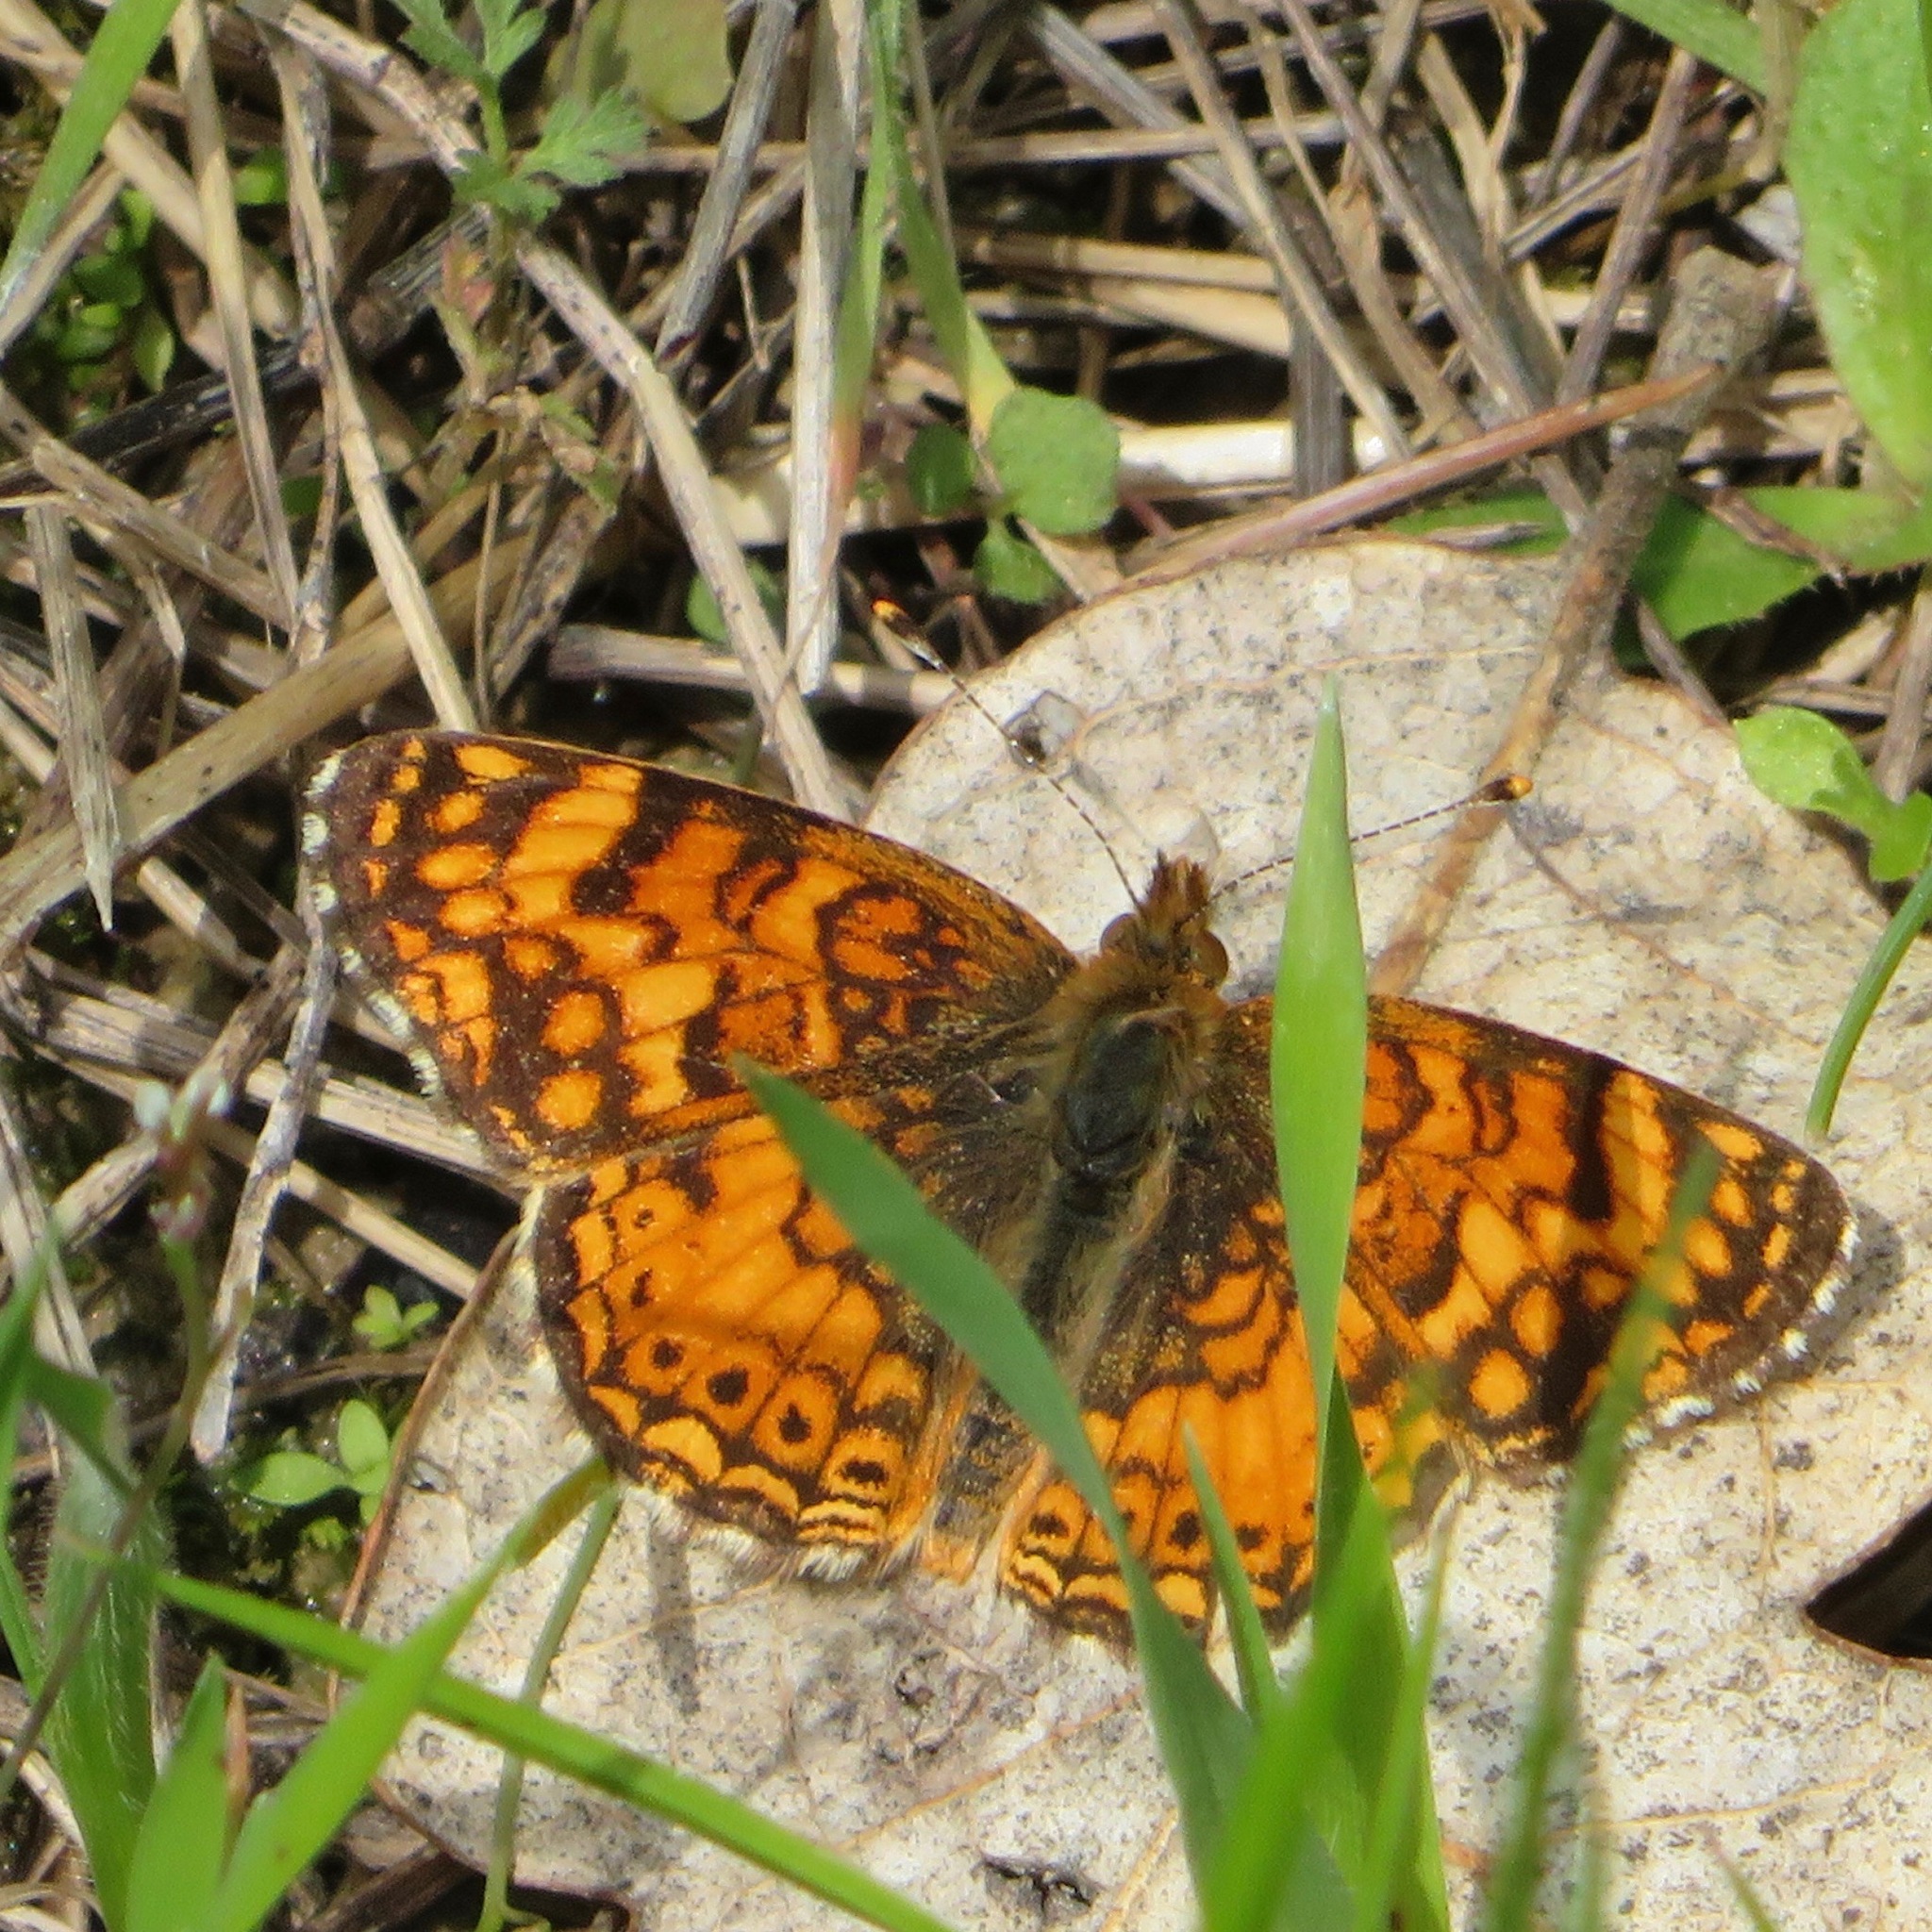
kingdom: Animalia
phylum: Arthropoda
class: Insecta
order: Lepidoptera
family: Nymphalidae
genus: Eresia
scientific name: Eresia aveyrona
